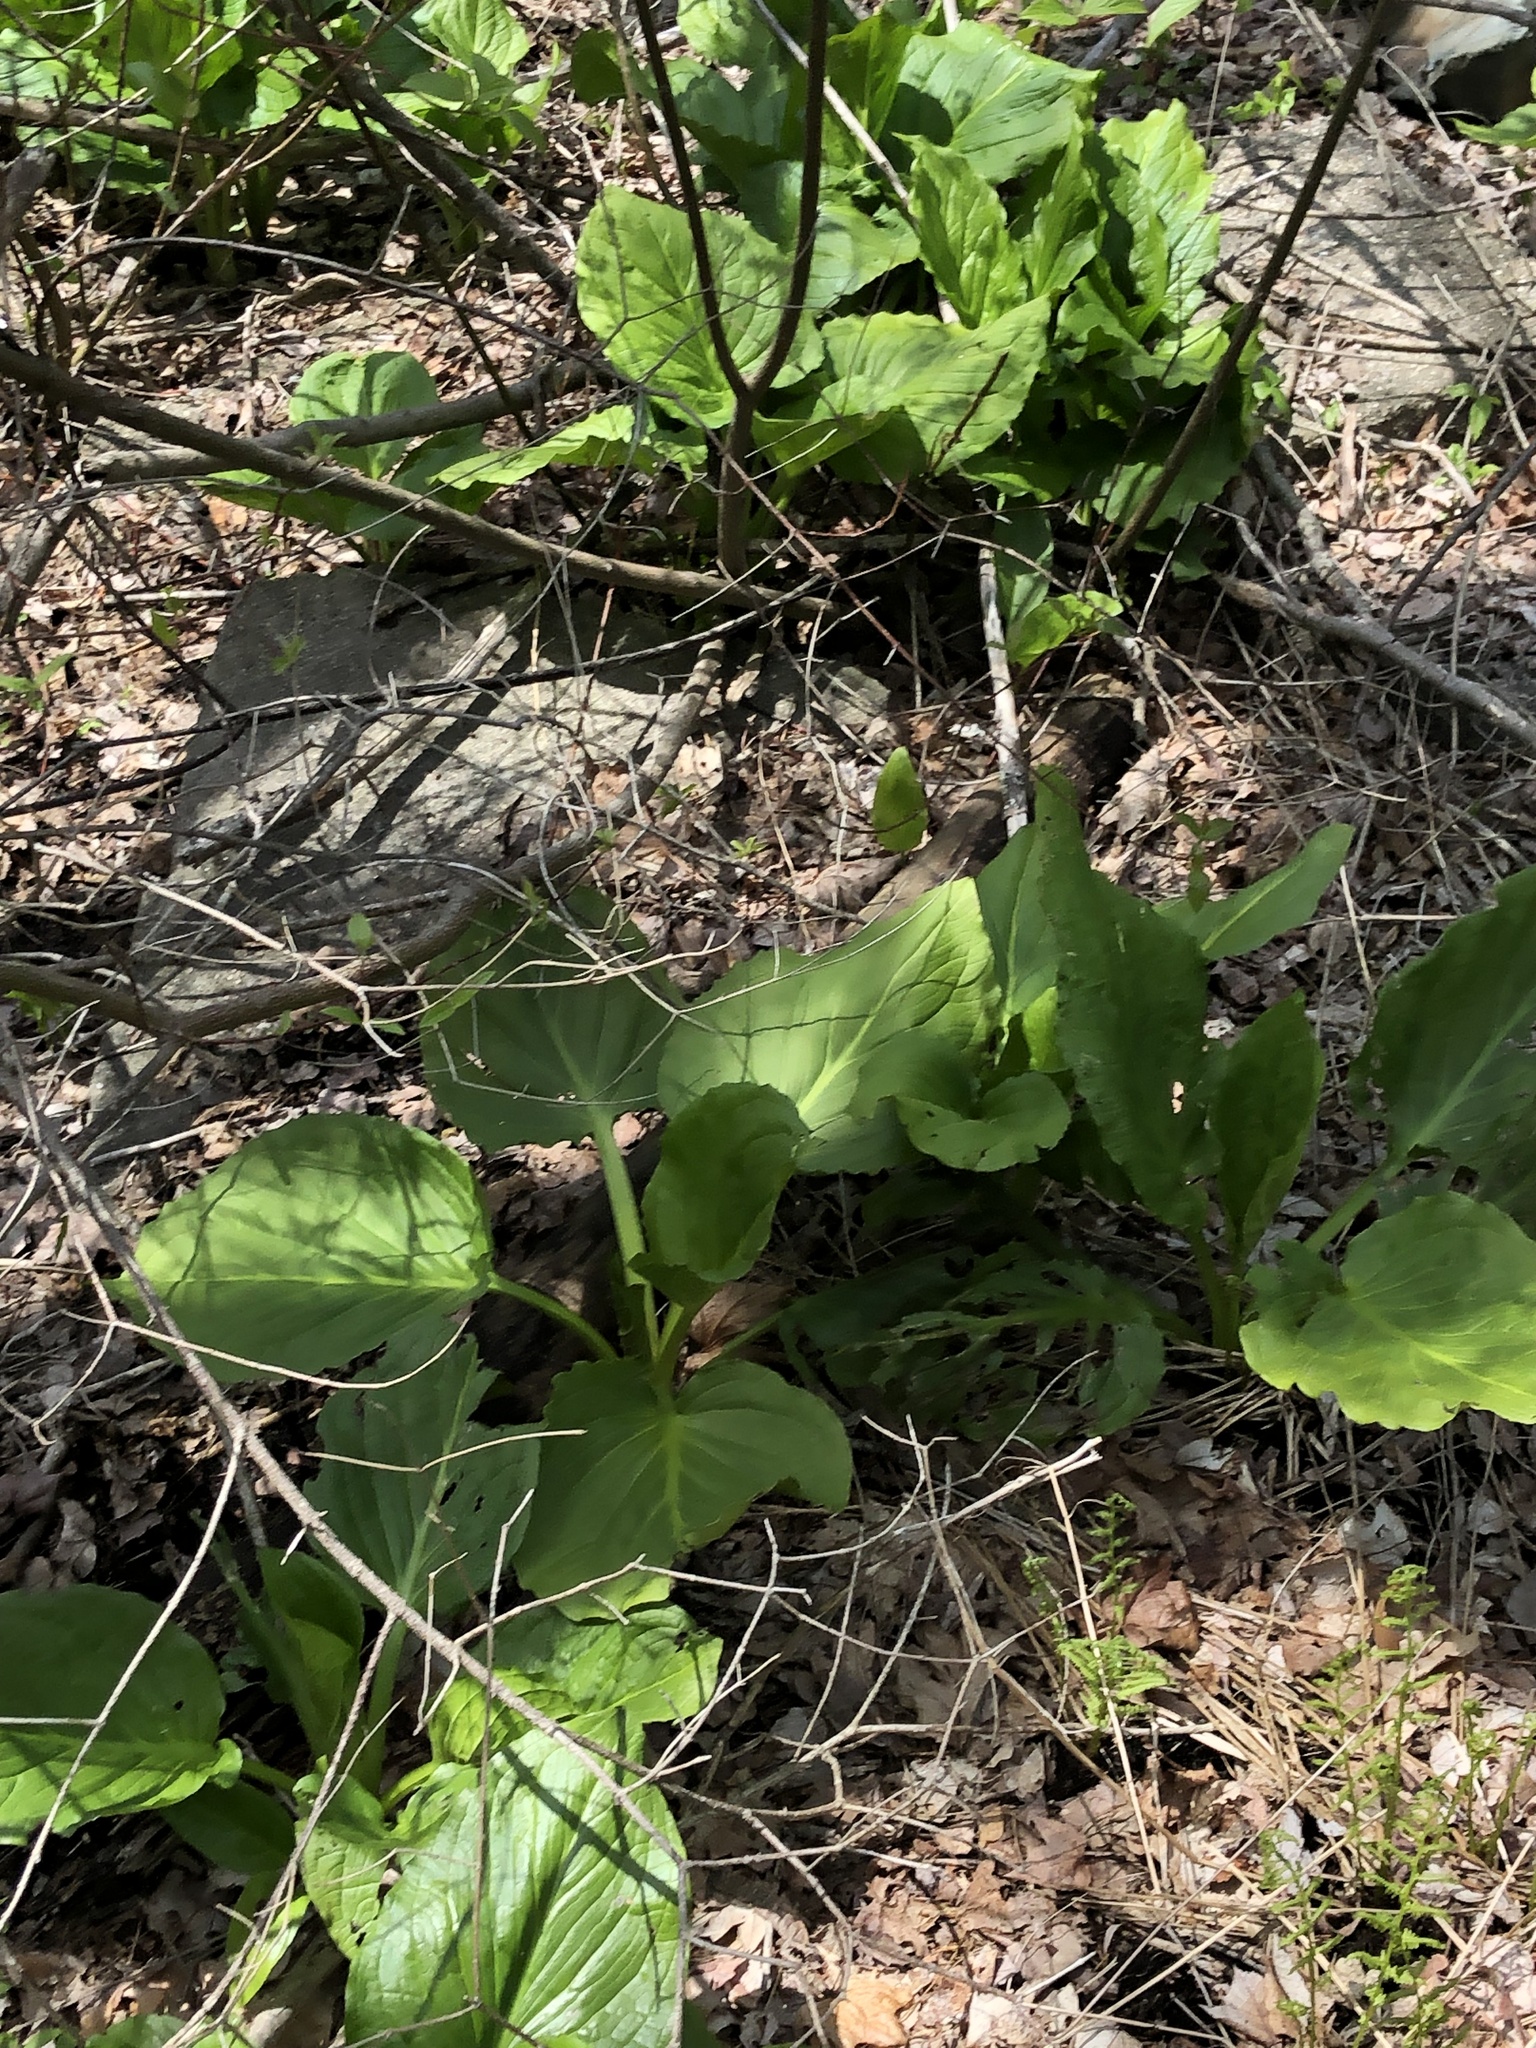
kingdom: Plantae
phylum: Tracheophyta
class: Liliopsida
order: Alismatales
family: Araceae
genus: Symplocarpus
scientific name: Symplocarpus foetidus
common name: Eastern skunk cabbage
